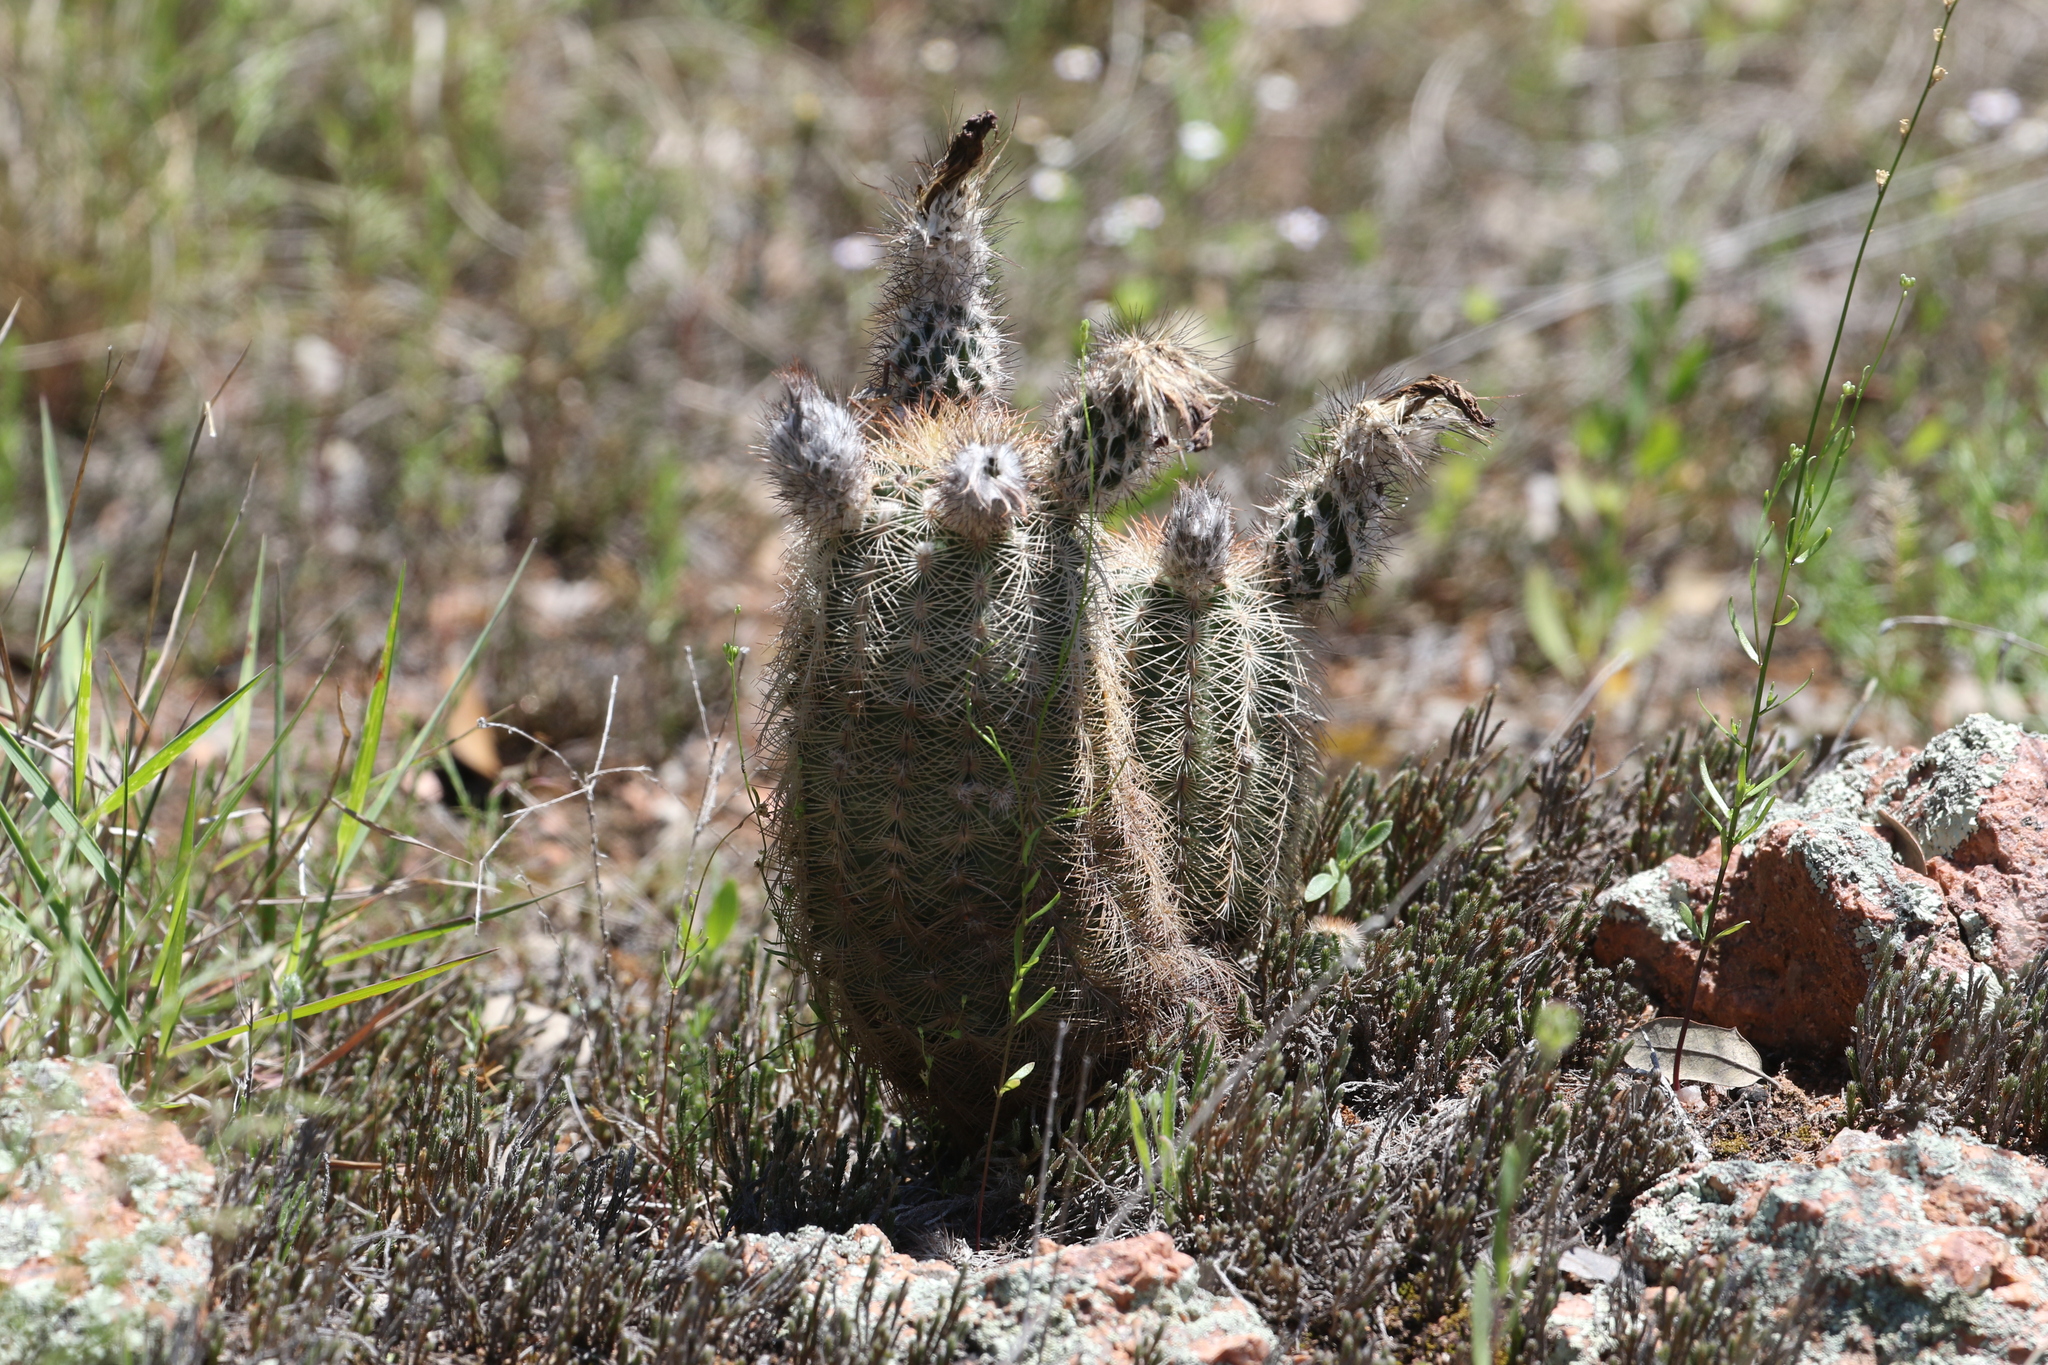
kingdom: Plantae
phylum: Tracheophyta
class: Magnoliopsida
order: Caryophyllales
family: Cactaceae
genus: Echinocereus
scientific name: Echinocereus reichenbachii
